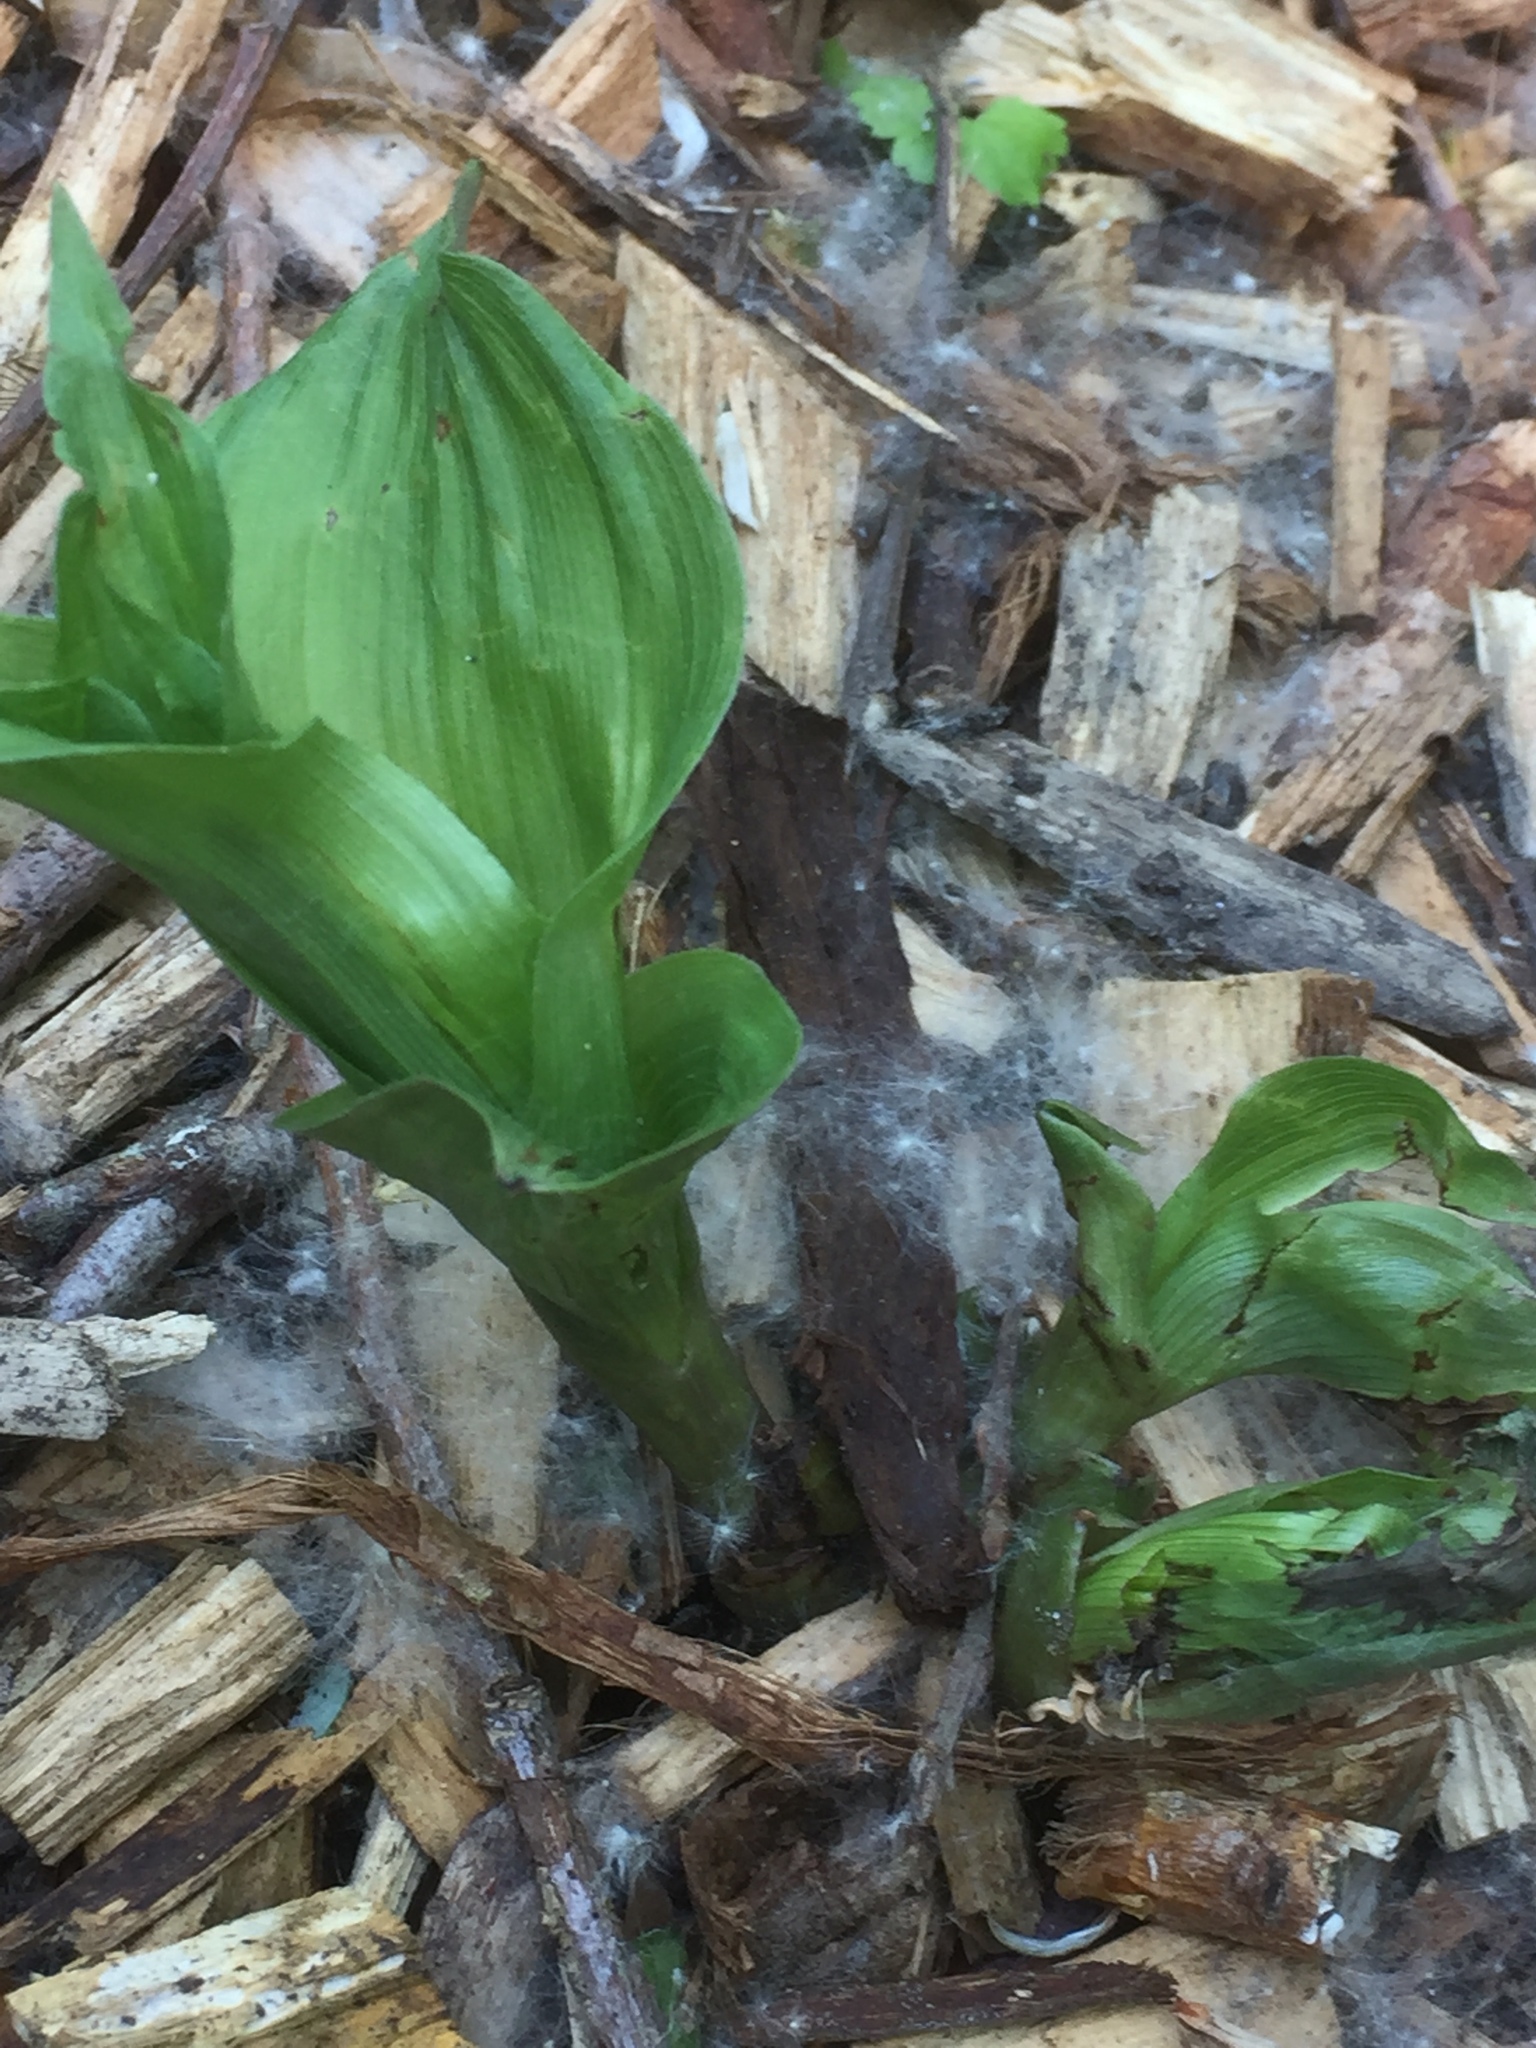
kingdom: Plantae
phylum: Tracheophyta
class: Liliopsida
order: Asparagales
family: Orchidaceae
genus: Epipactis
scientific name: Epipactis helleborine
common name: Broad-leaved helleborine
